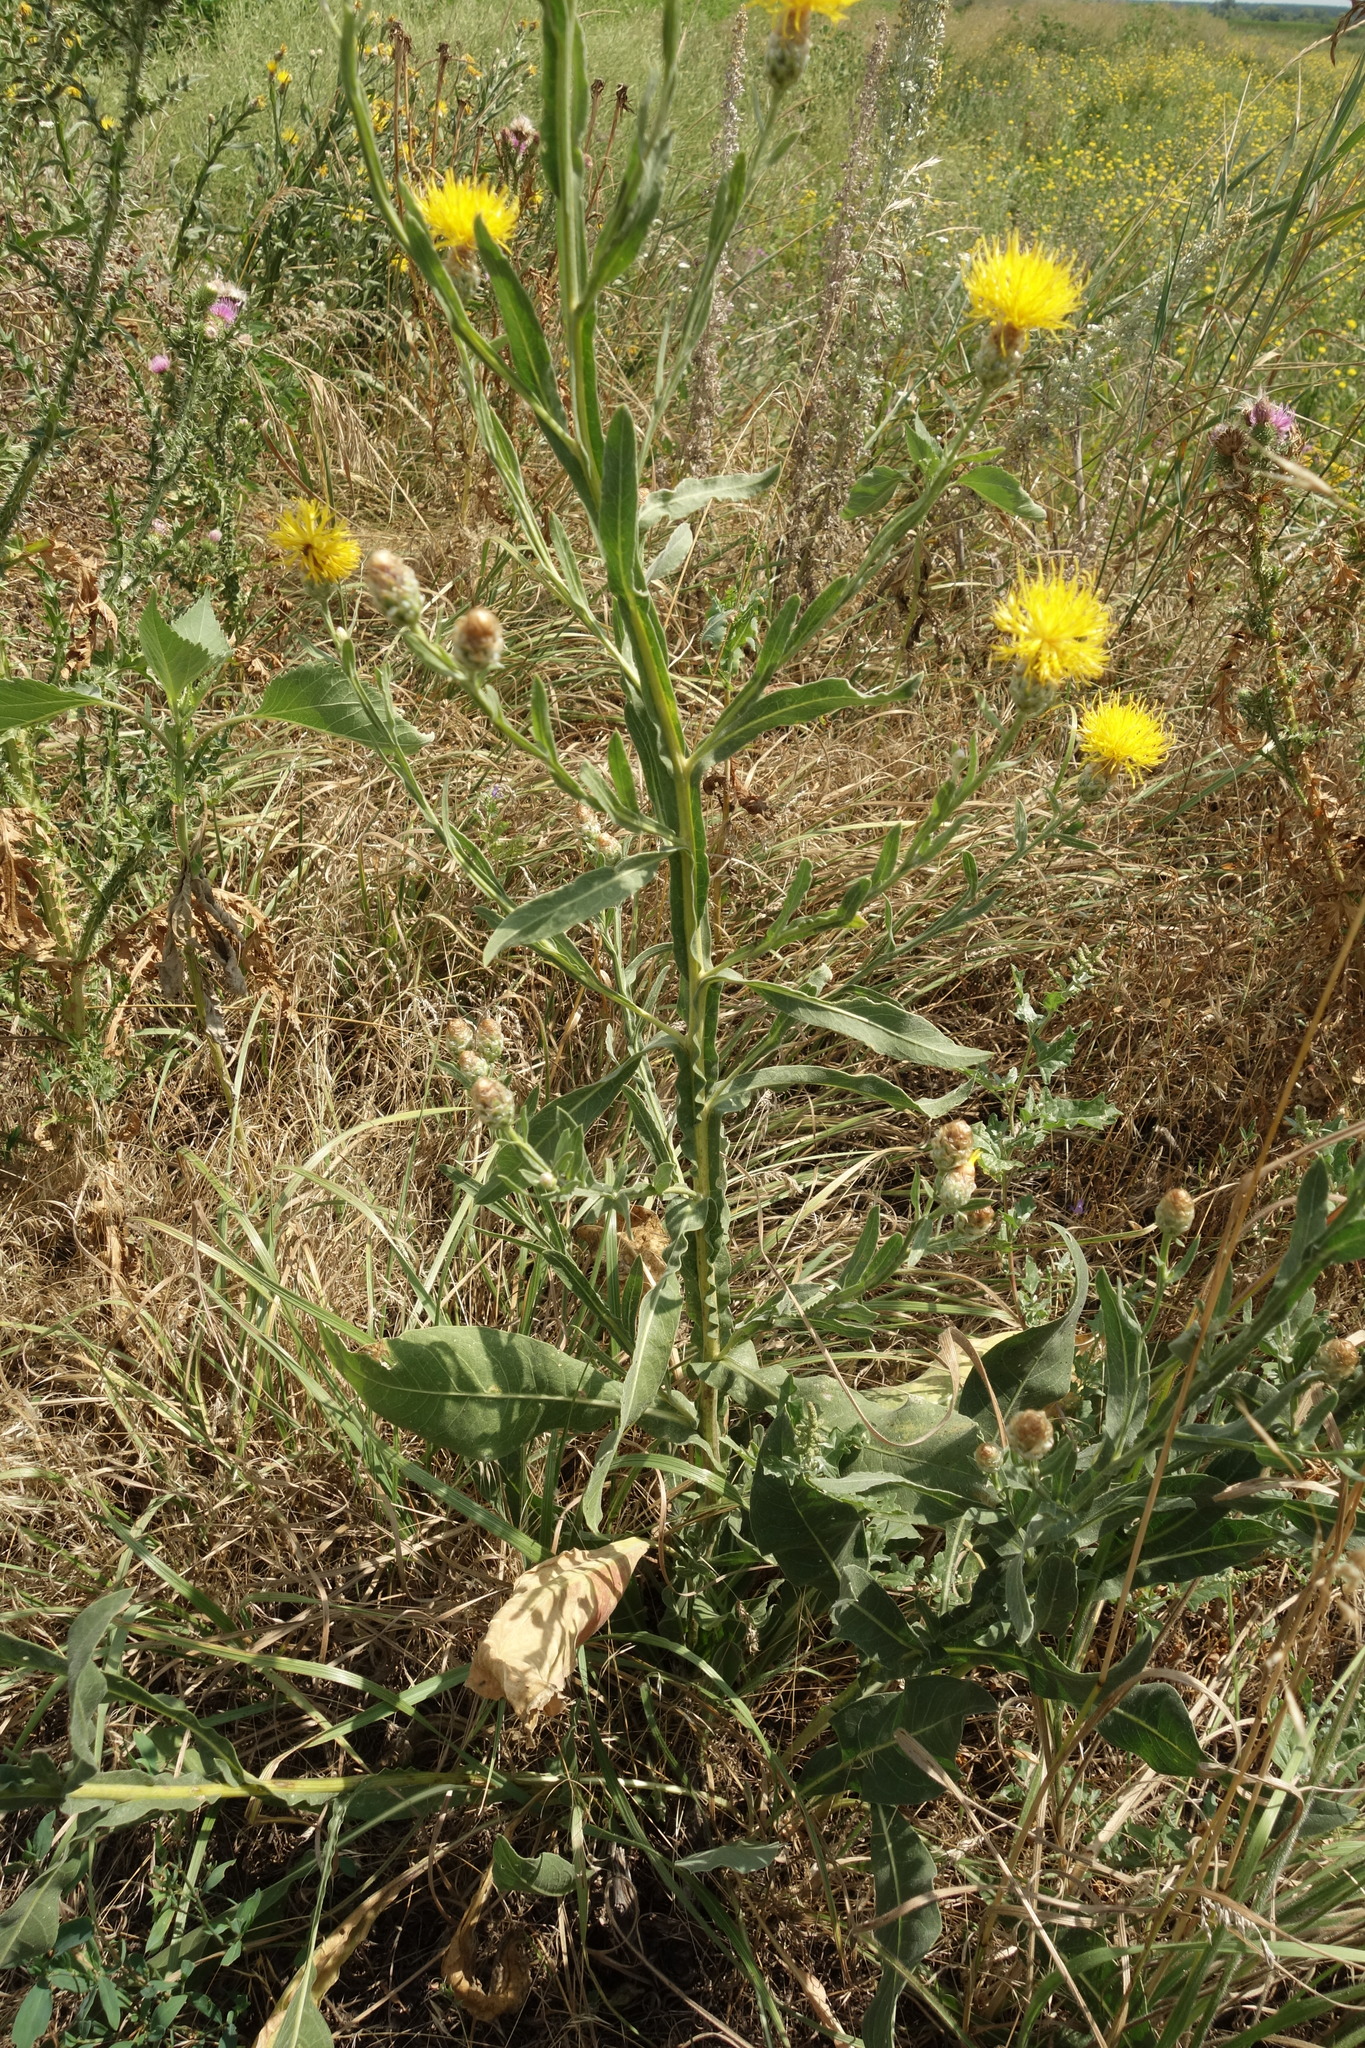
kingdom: Plantae
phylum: Tracheophyta
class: Magnoliopsida
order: Asterales
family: Asteraceae
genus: Centaurea
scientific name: Centaurea glastifolia
